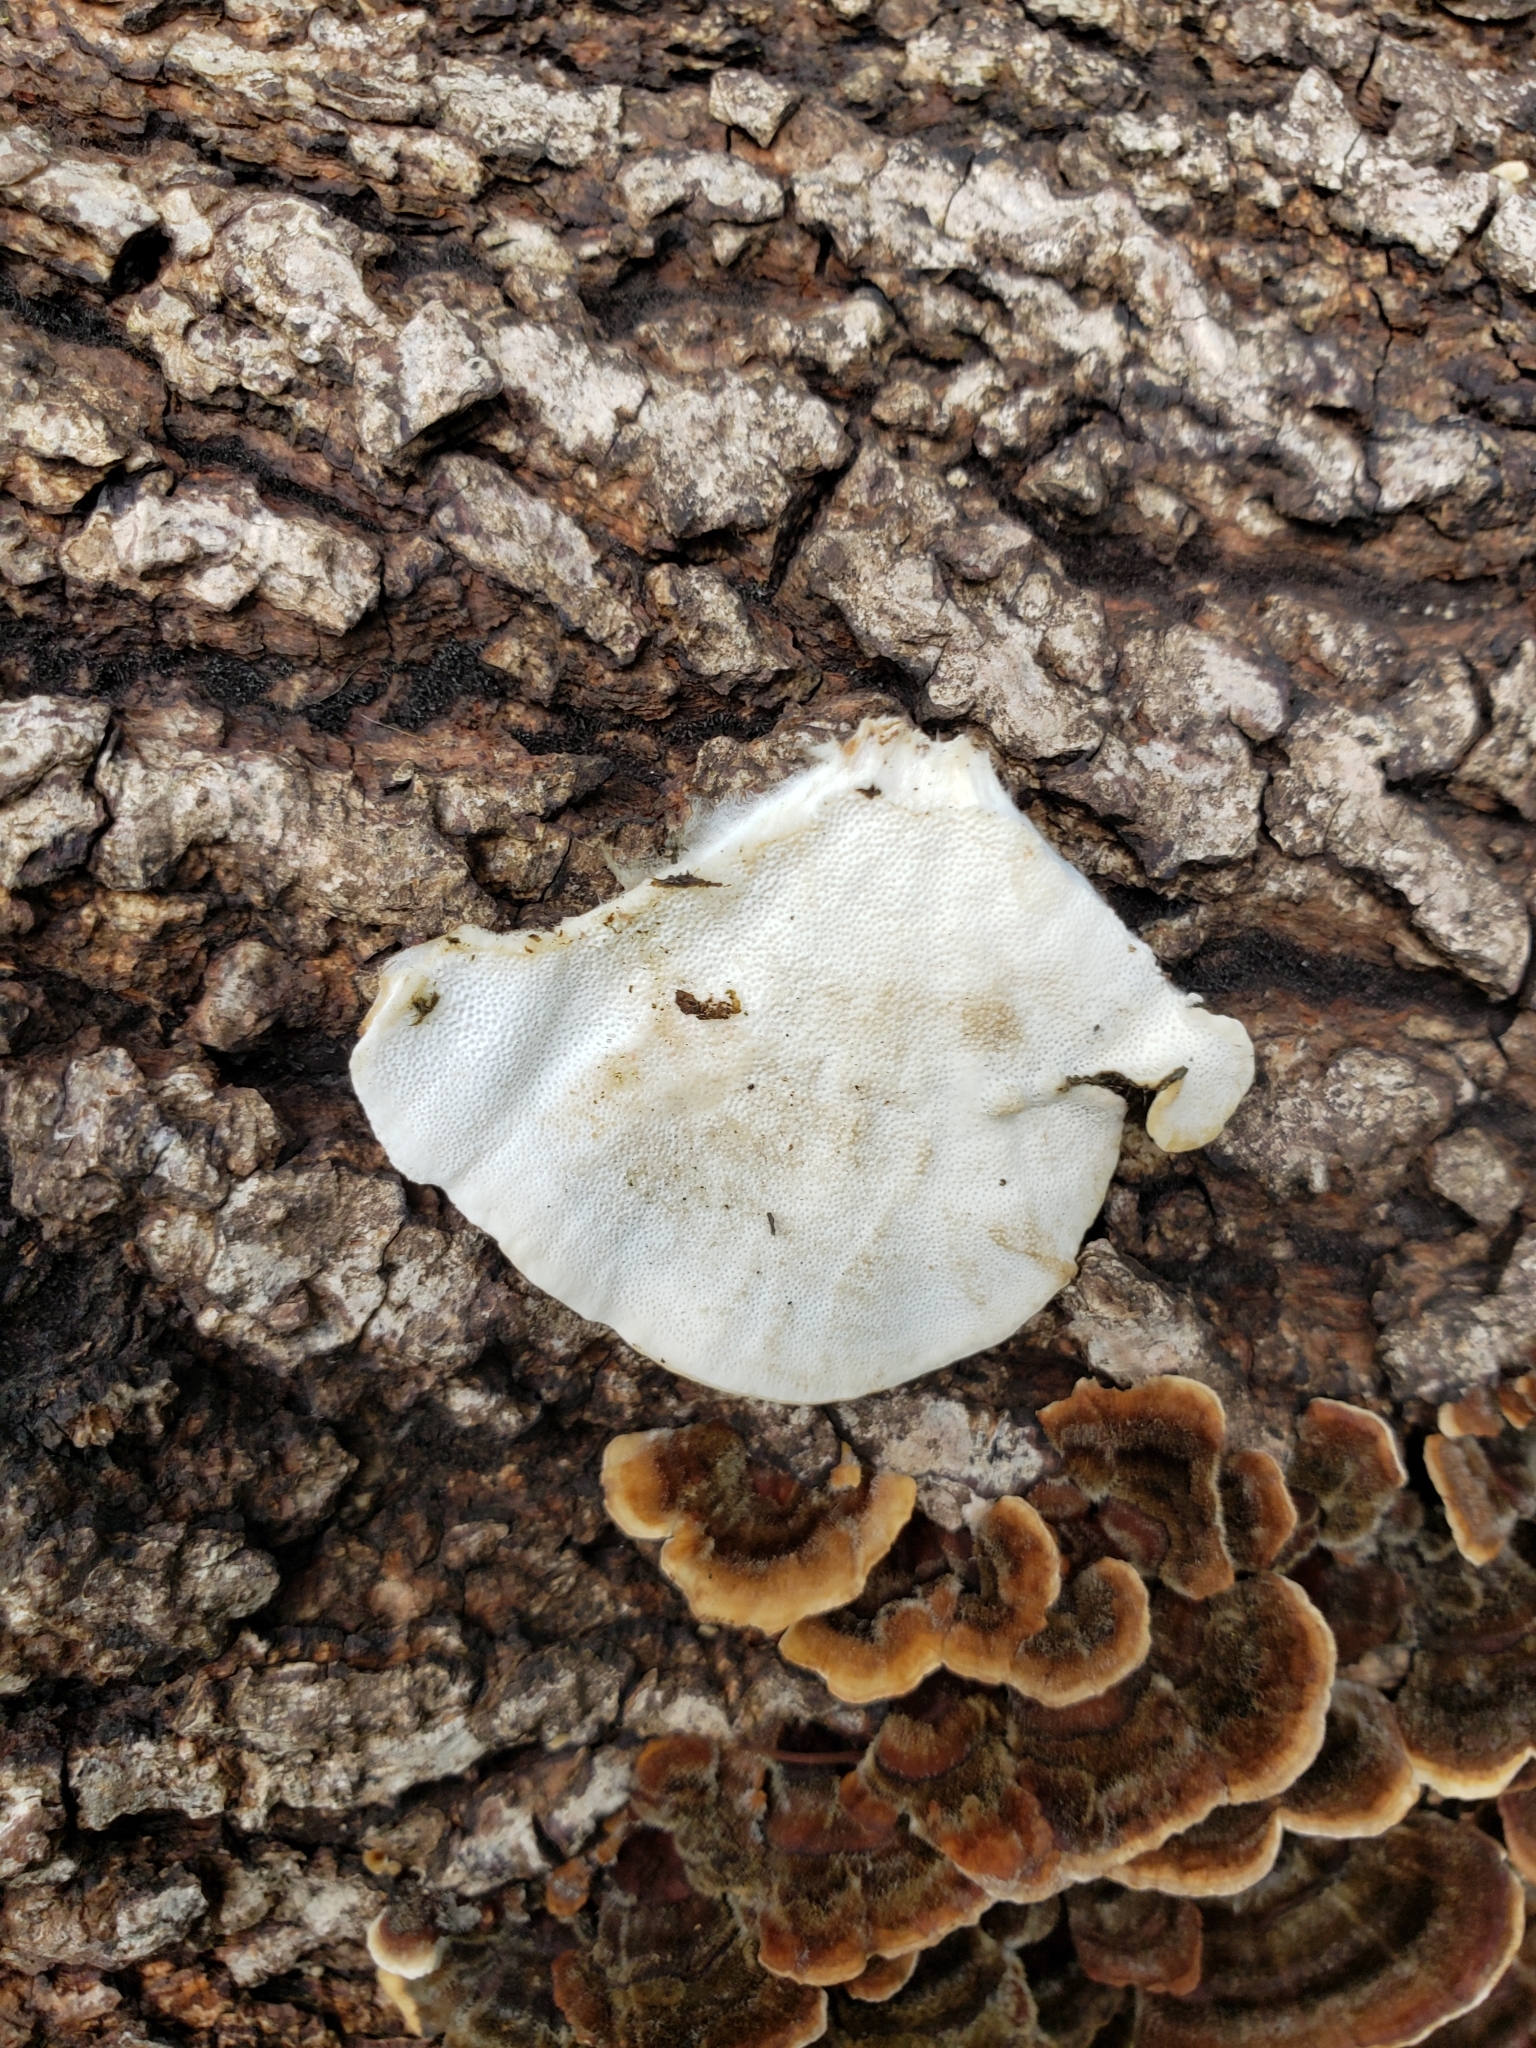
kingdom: Fungi
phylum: Basidiomycota
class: Agaricomycetes
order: Polyporales
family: Polyporaceae
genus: Trametes
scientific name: Trametes versicolor
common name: Turkeytail
